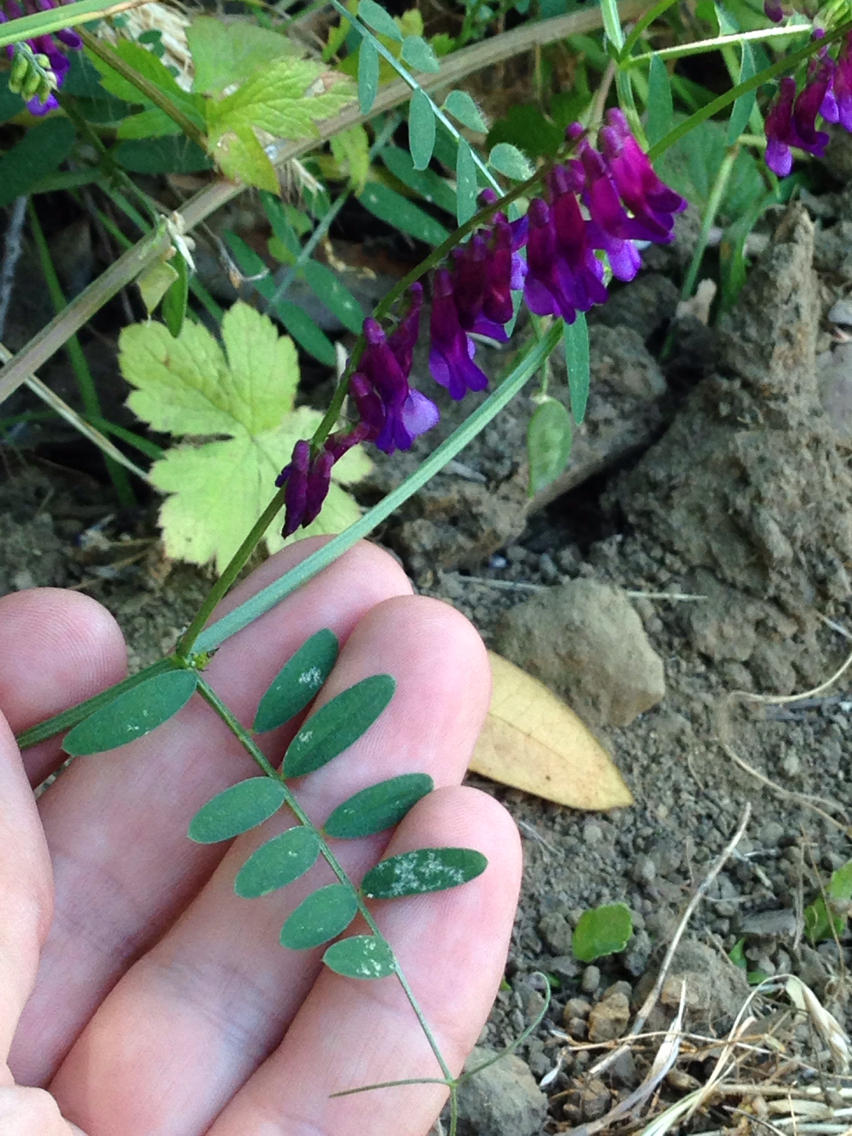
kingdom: Plantae
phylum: Tracheophyta
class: Magnoliopsida
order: Fabales
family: Fabaceae
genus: Vicia
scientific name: Vicia villosa
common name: Fodder vetch
